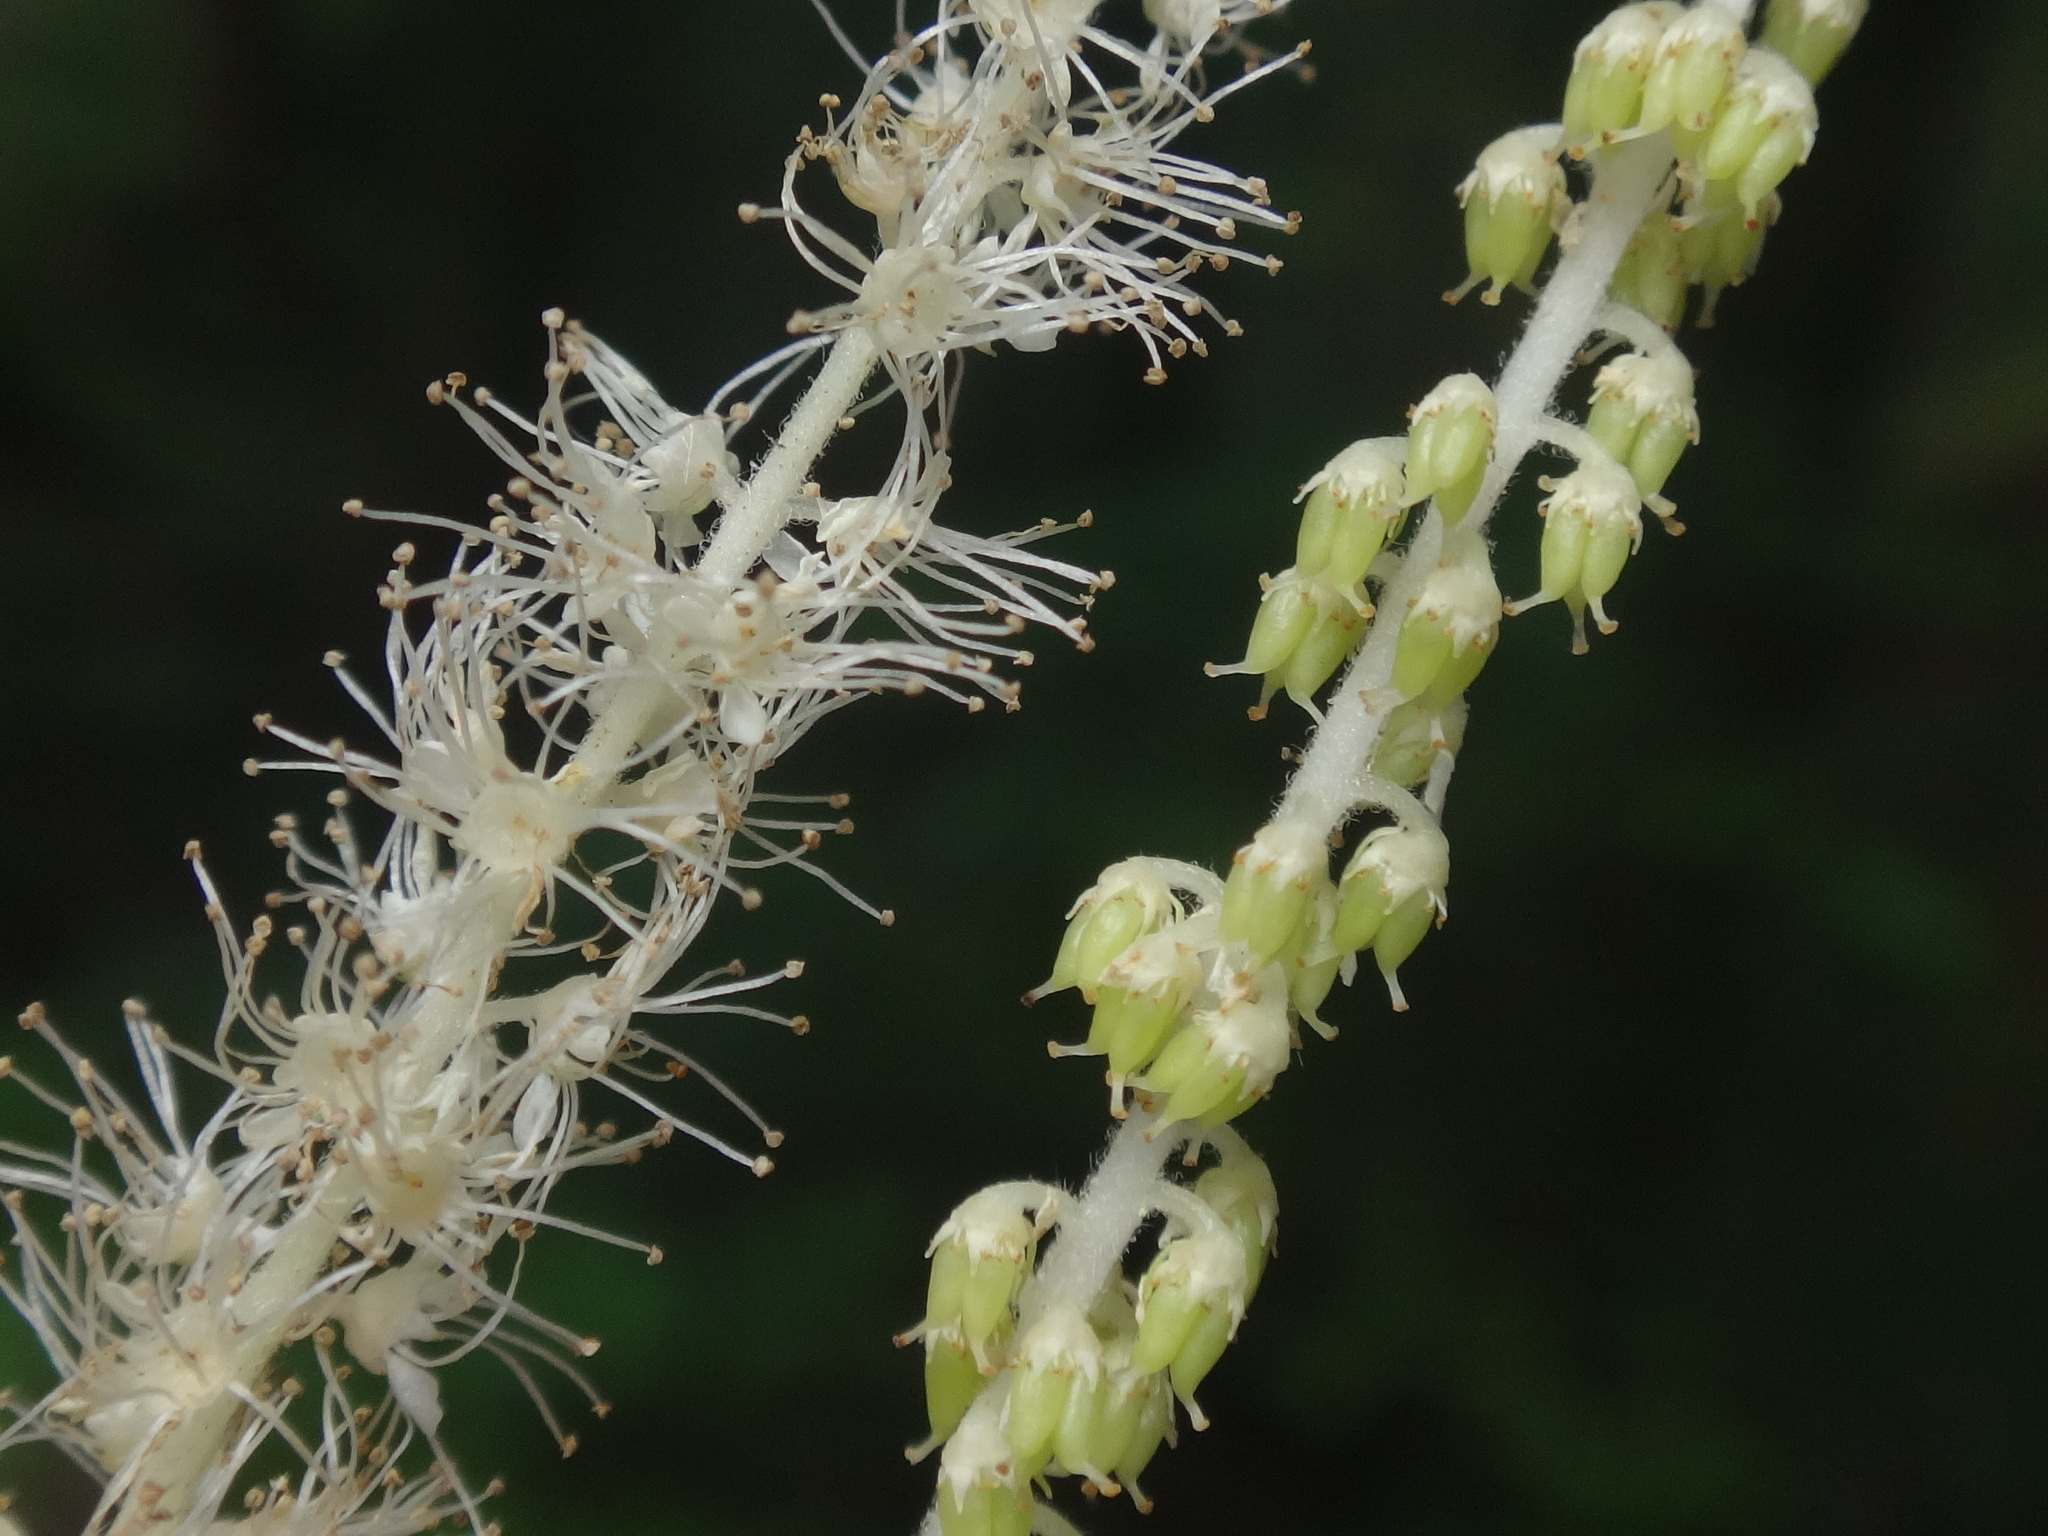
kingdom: Plantae
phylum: Tracheophyta
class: Magnoliopsida
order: Rosales
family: Rosaceae
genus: Aruncus
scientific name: Aruncus dioicus
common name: Buck's-beard
